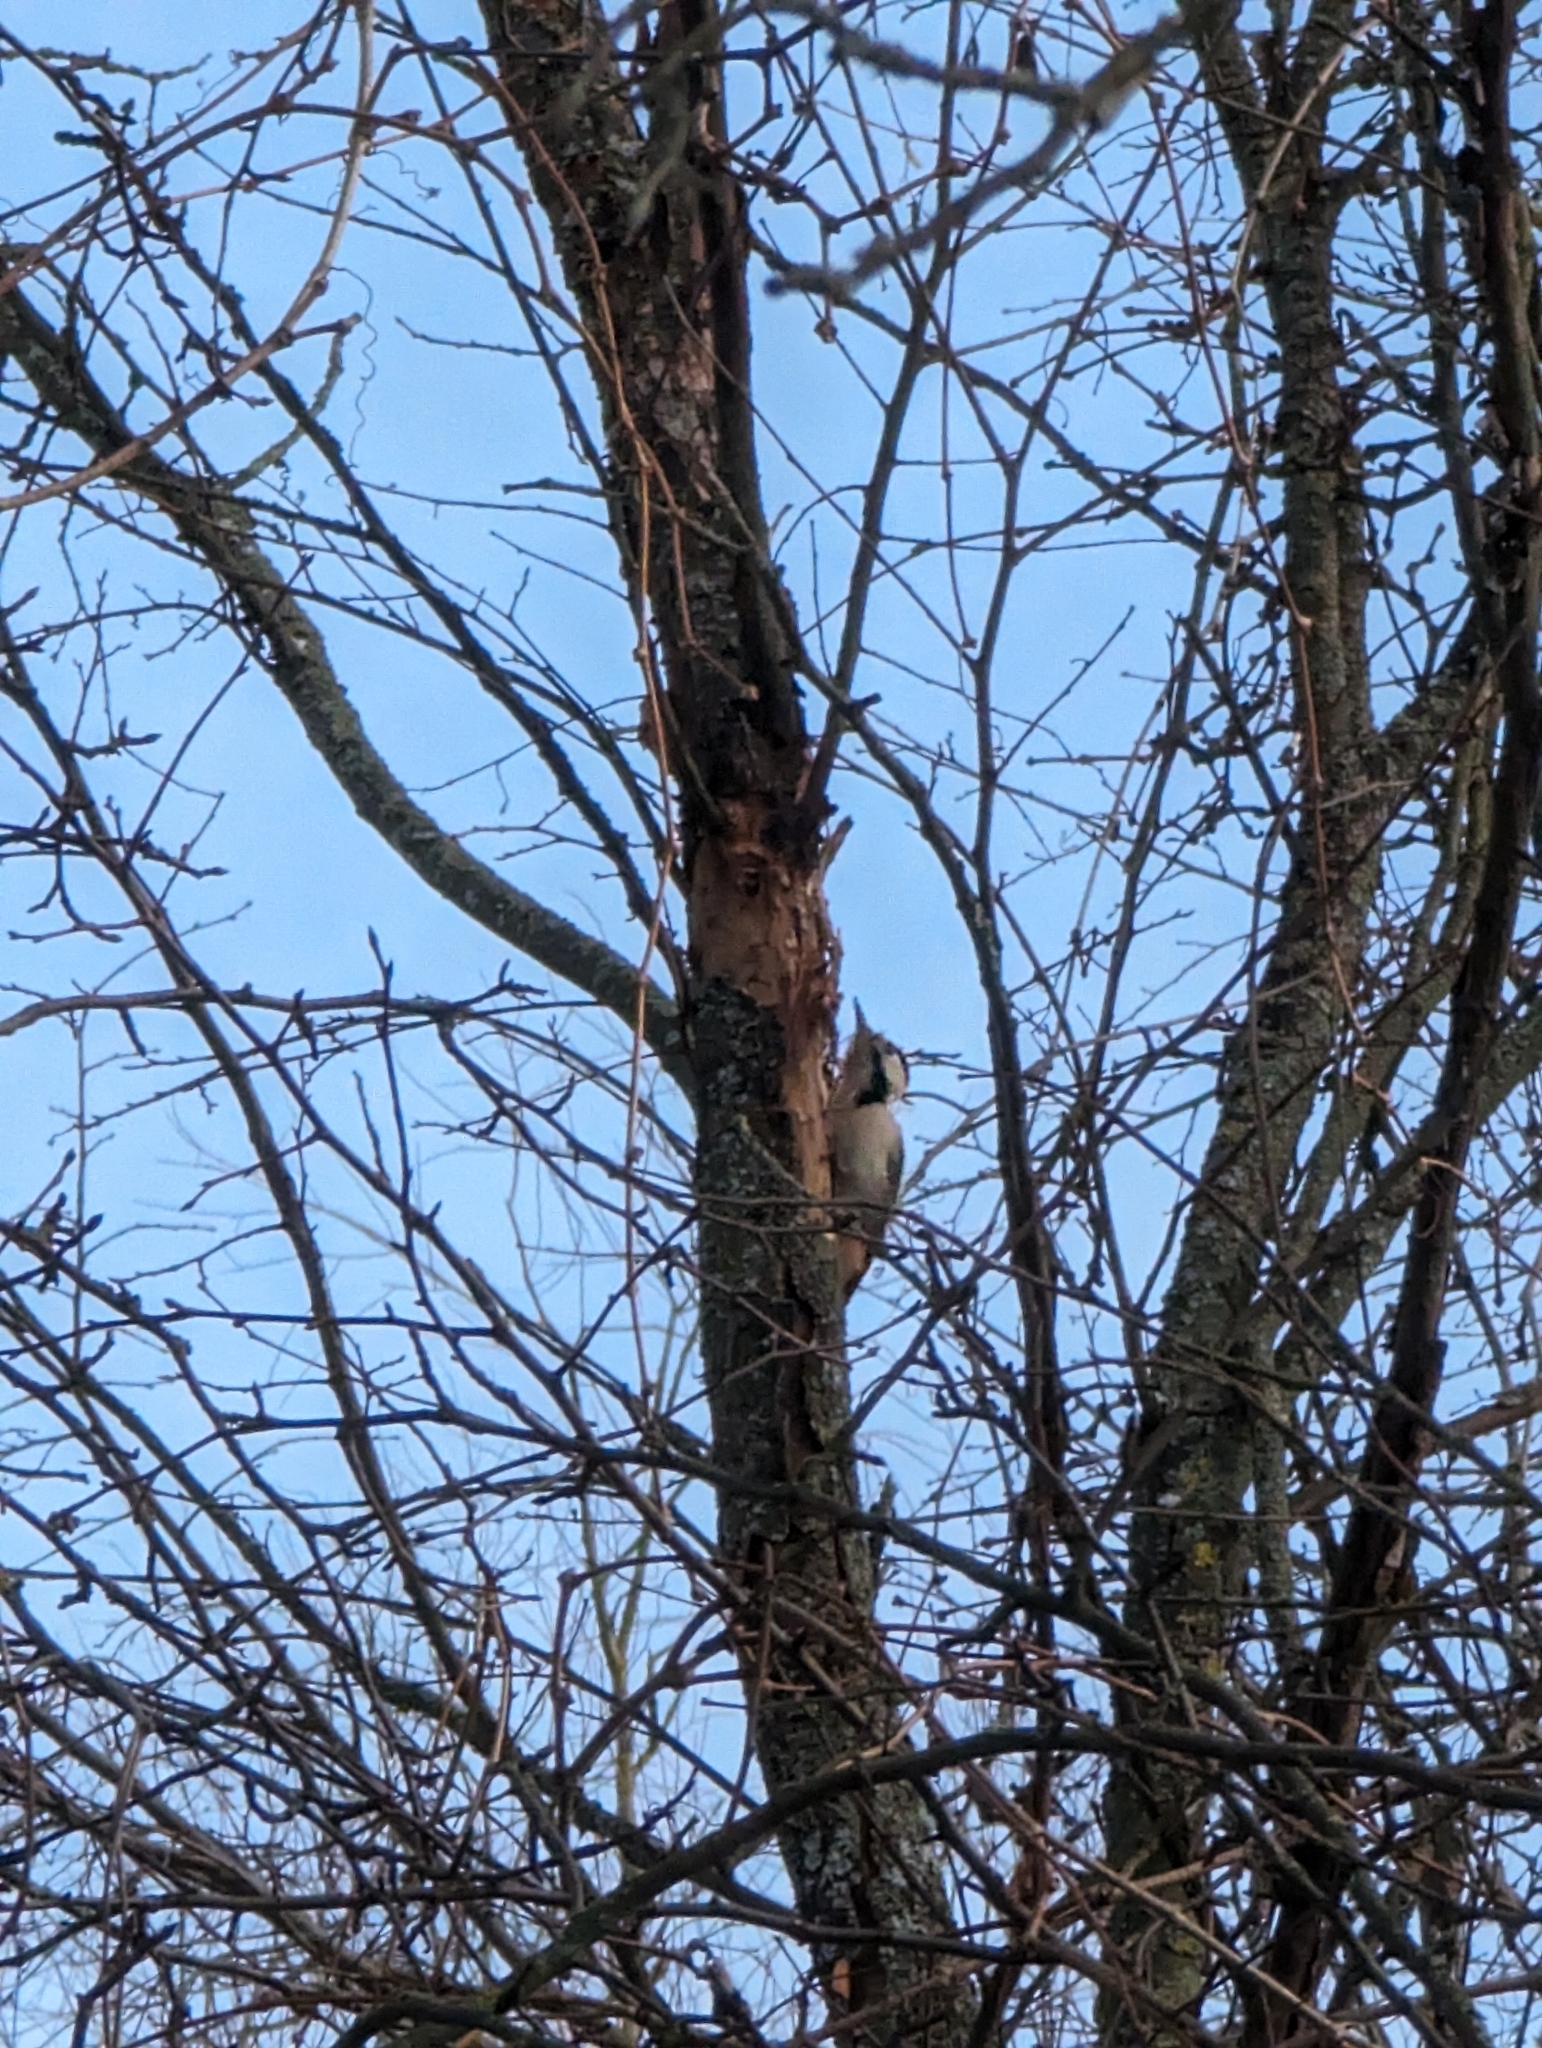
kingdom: Animalia
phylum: Chordata
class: Aves
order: Piciformes
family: Picidae
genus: Dendrocopos
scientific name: Dendrocopos syriacus
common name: Syrian woodpecker
